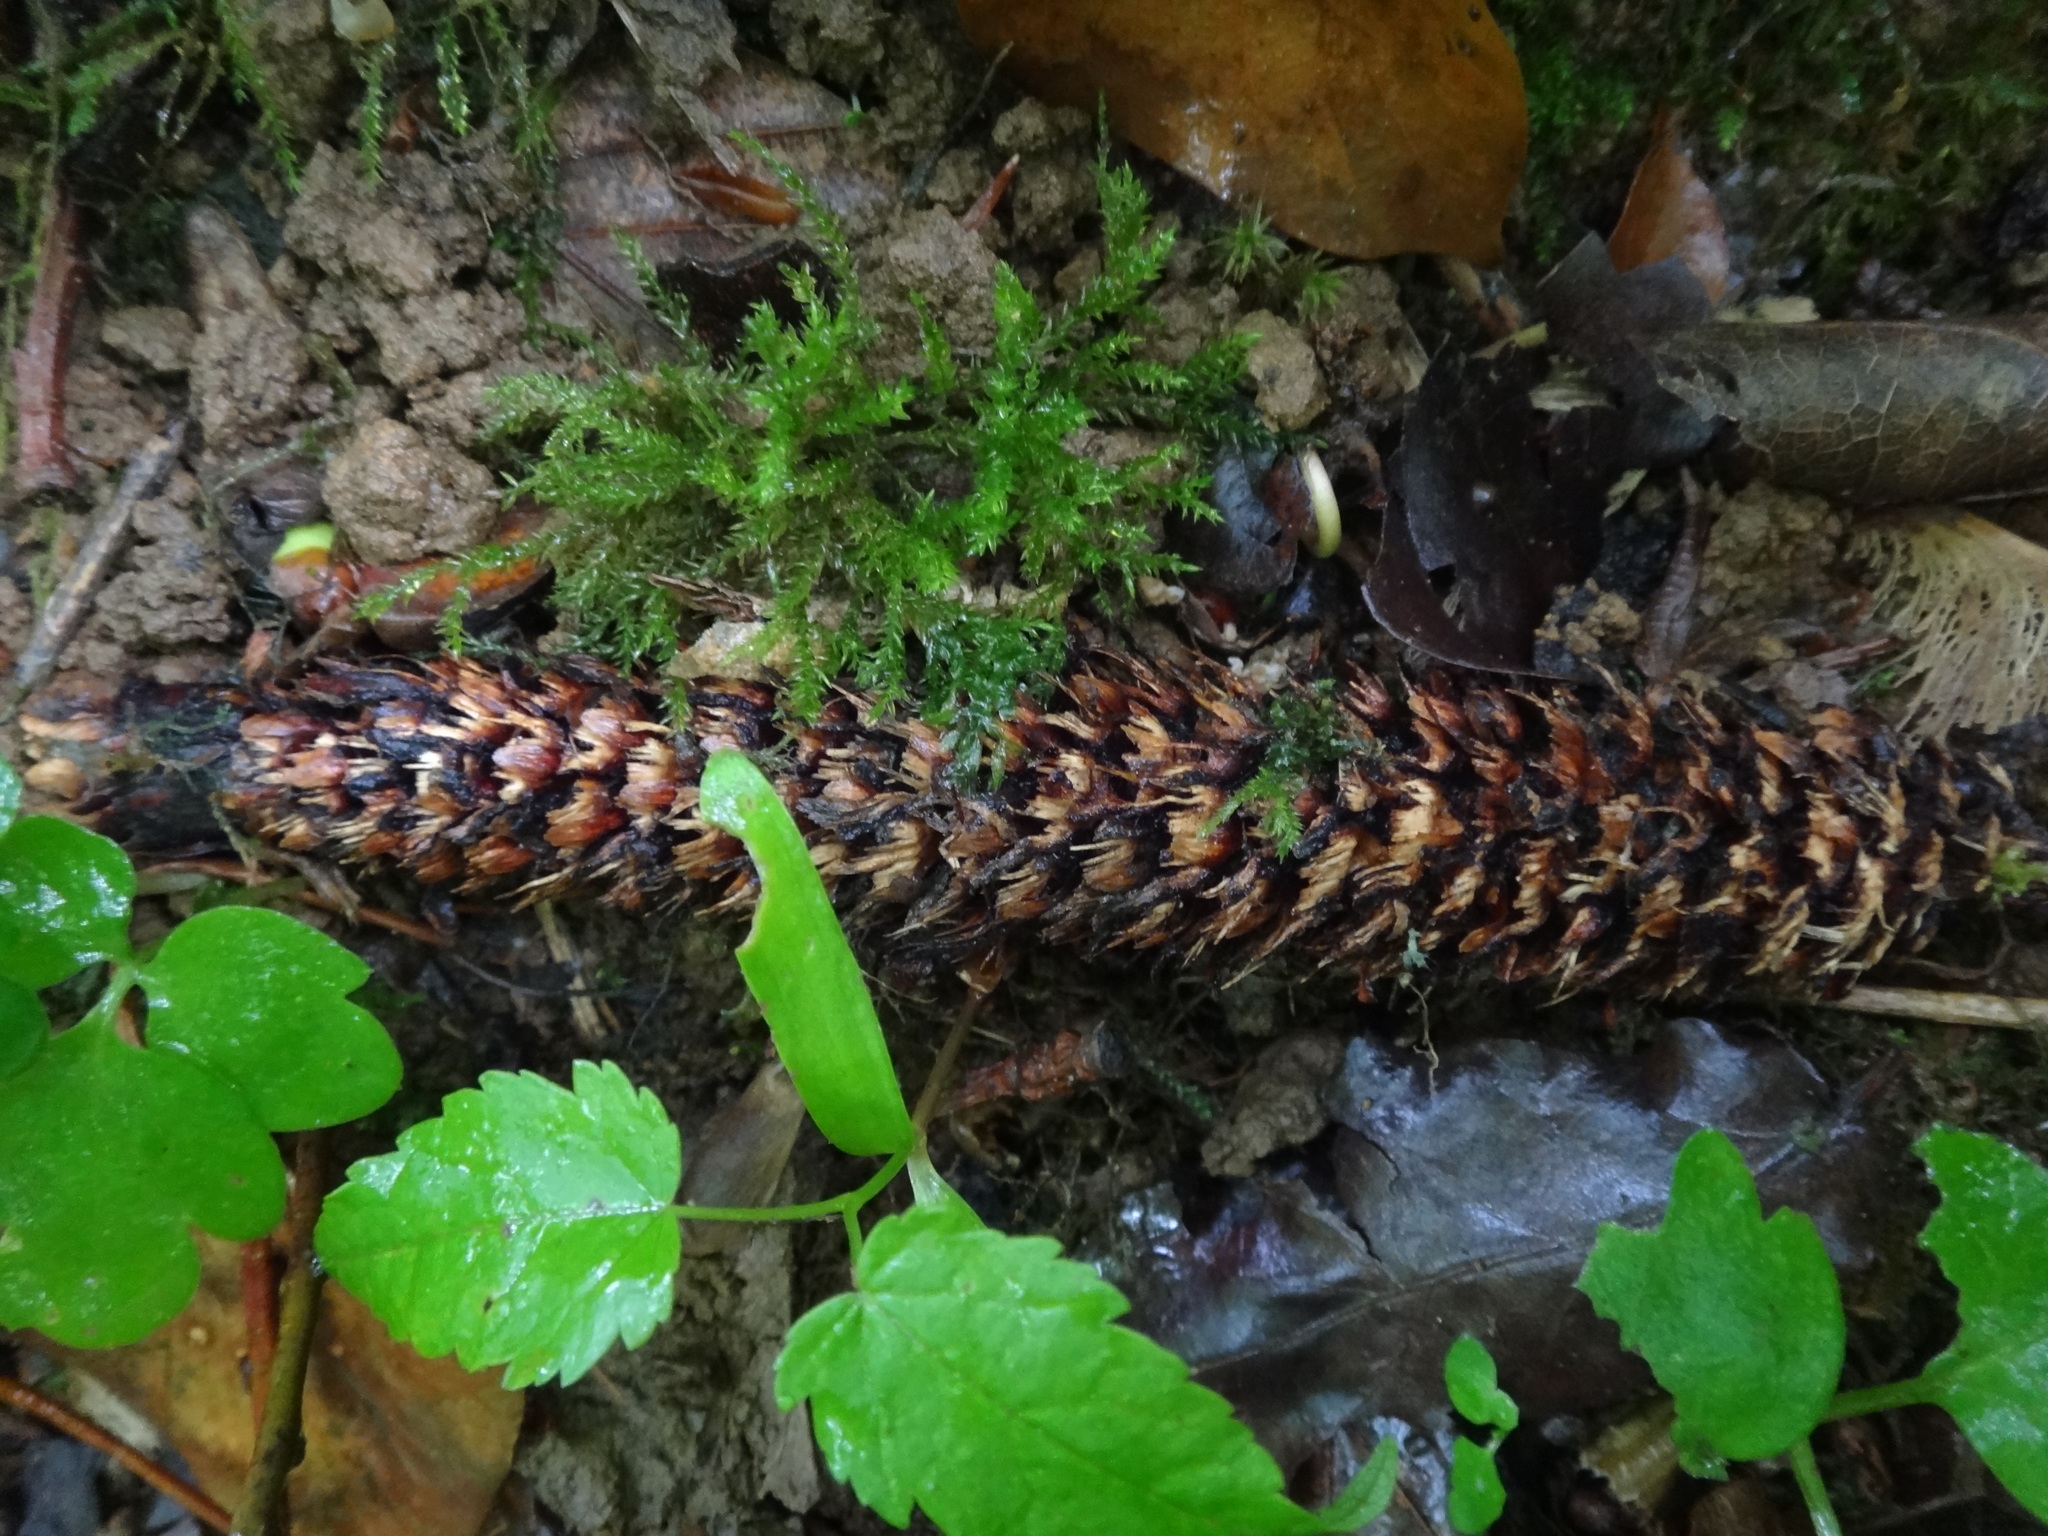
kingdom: Animalia
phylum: Chordata
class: Mammalia
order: Rodentia
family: Sciuridae
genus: Sciurus
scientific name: Sciurus vulgaris
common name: Eurasian red squirrel
